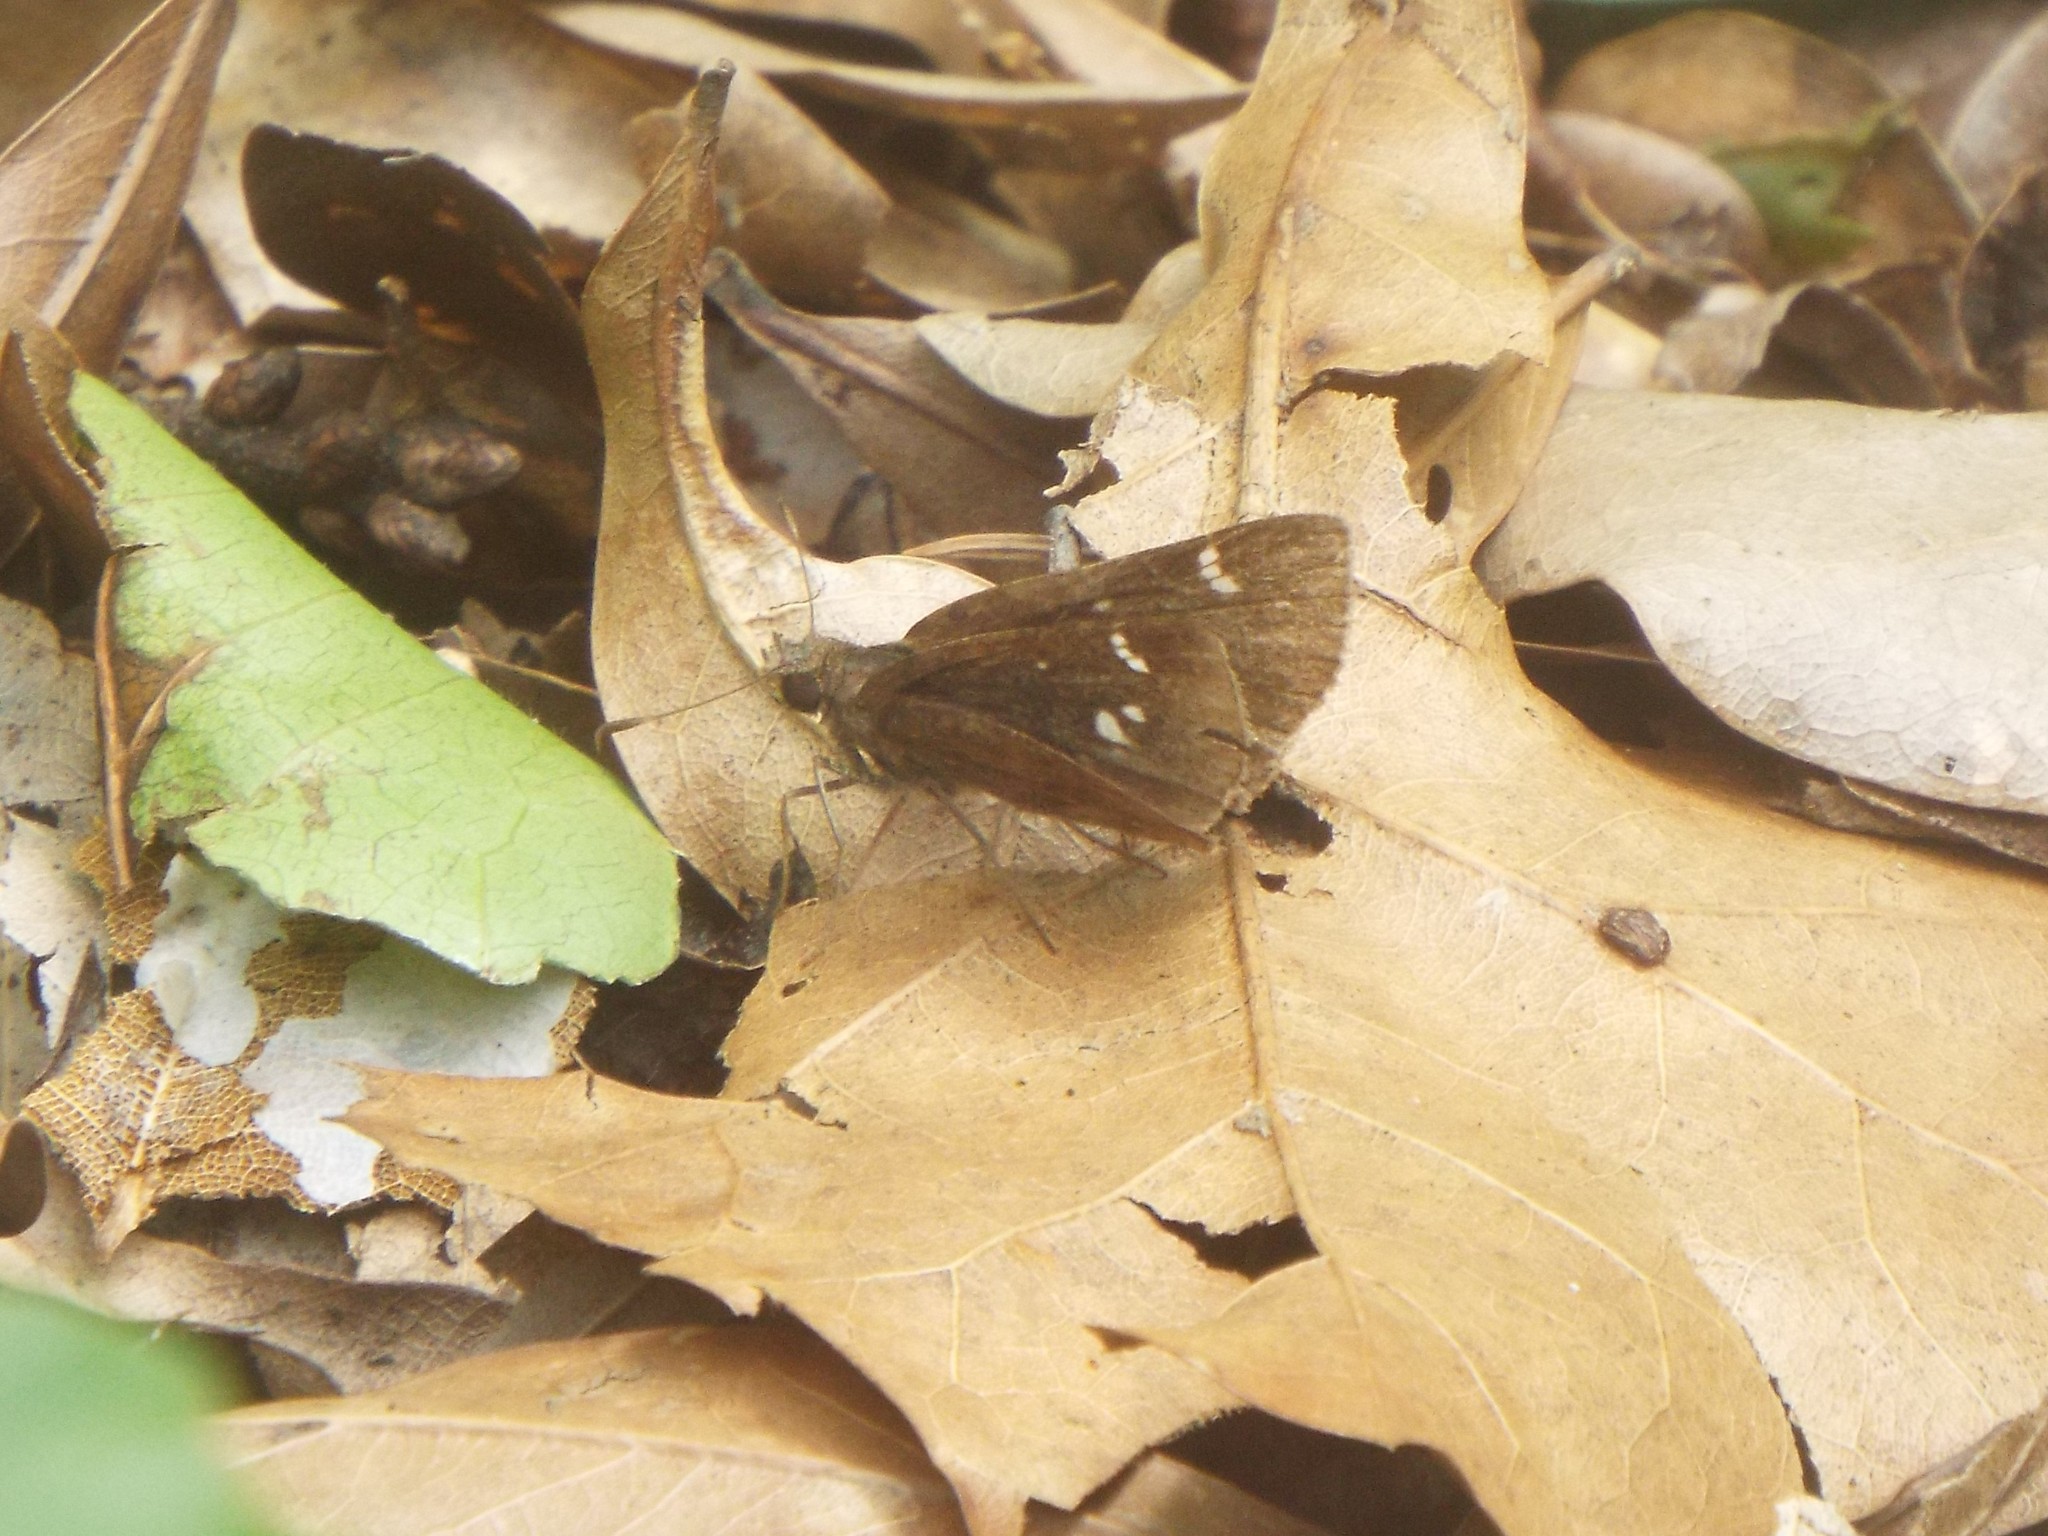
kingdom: Animalia
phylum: Arthropoda
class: Insecta
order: Lepidoptera
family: Hesperiidae
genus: Lerema
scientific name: Lerema accius
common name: Clouded skipper
